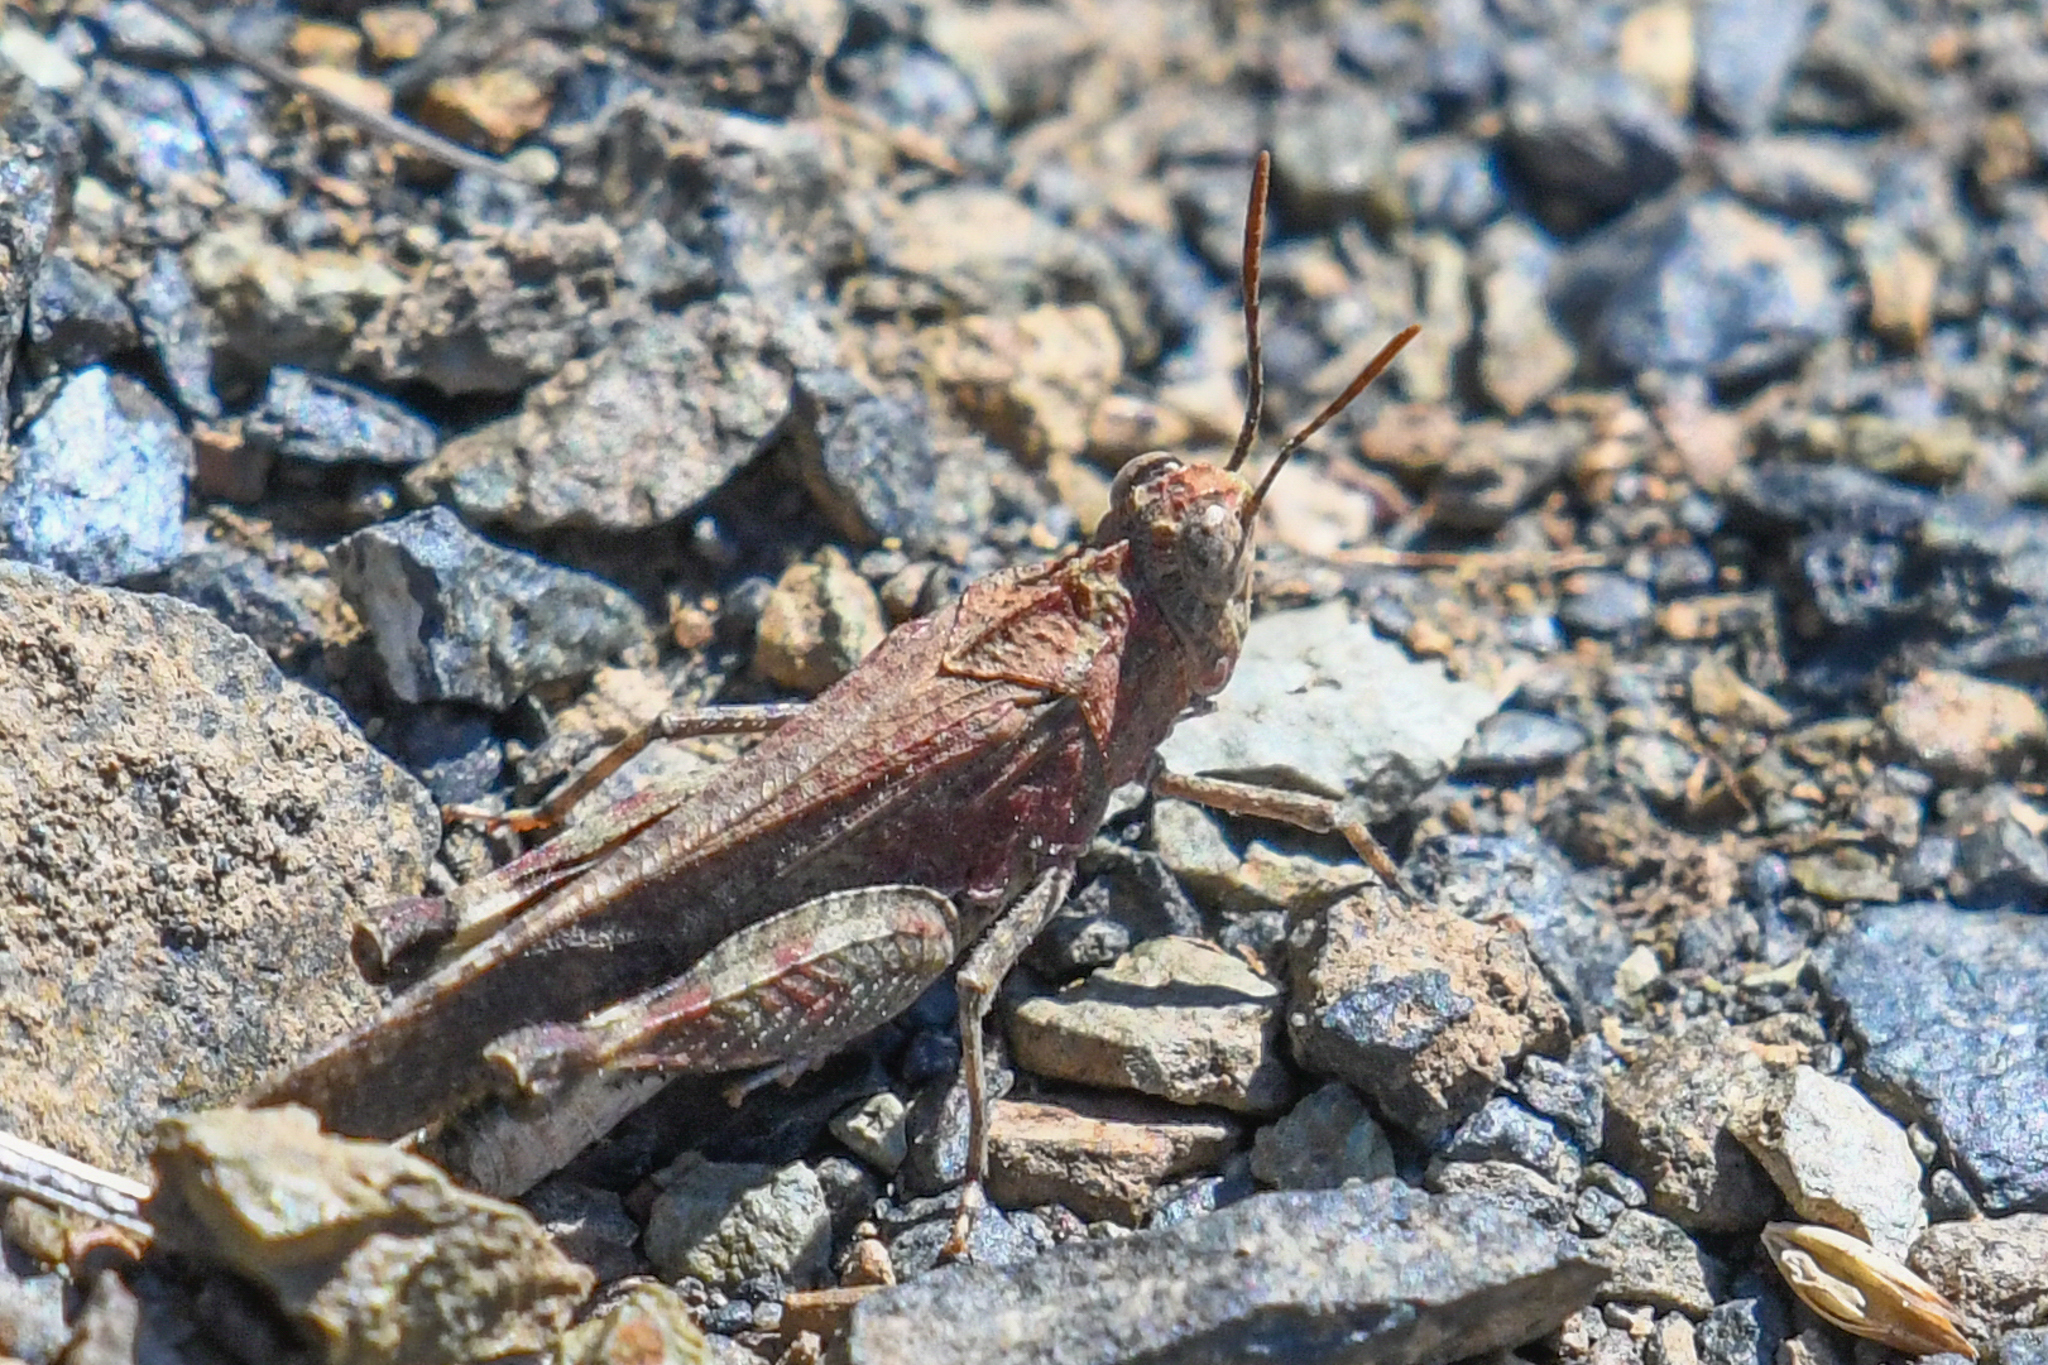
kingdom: Animalia
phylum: Arthropoda
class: Insecta
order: Orthoptera
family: Acrididae
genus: Lactista
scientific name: Lactista gibbosus
